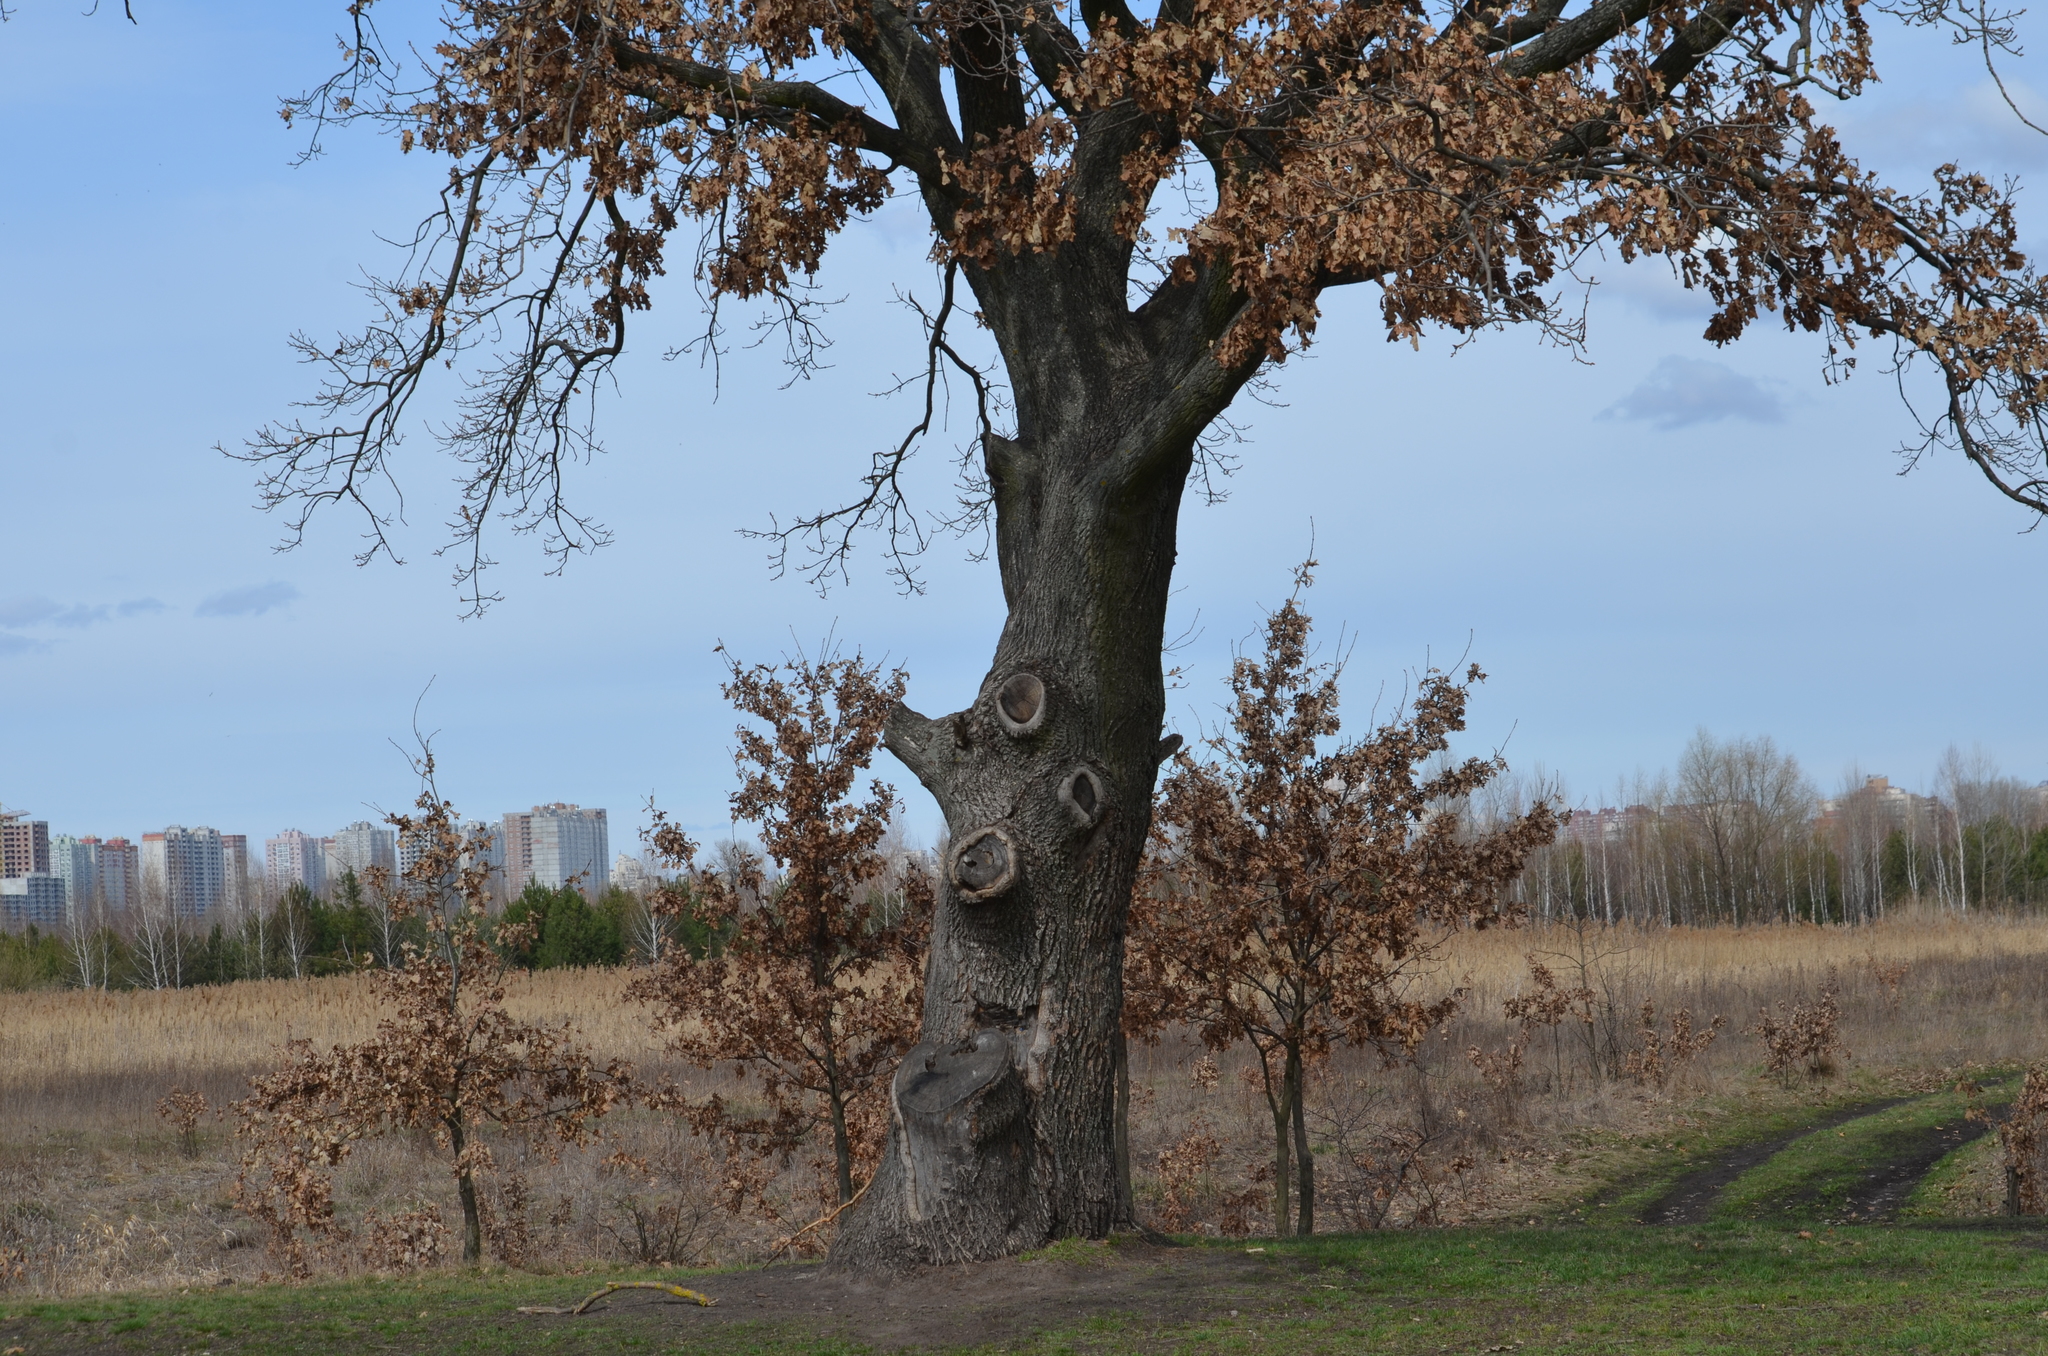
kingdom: Plantae
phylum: Tracheophyta
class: Magnoliopsida
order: Fagales
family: Fagaceae
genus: Quercus
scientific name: Quercus robur
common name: Pedunculate oak
